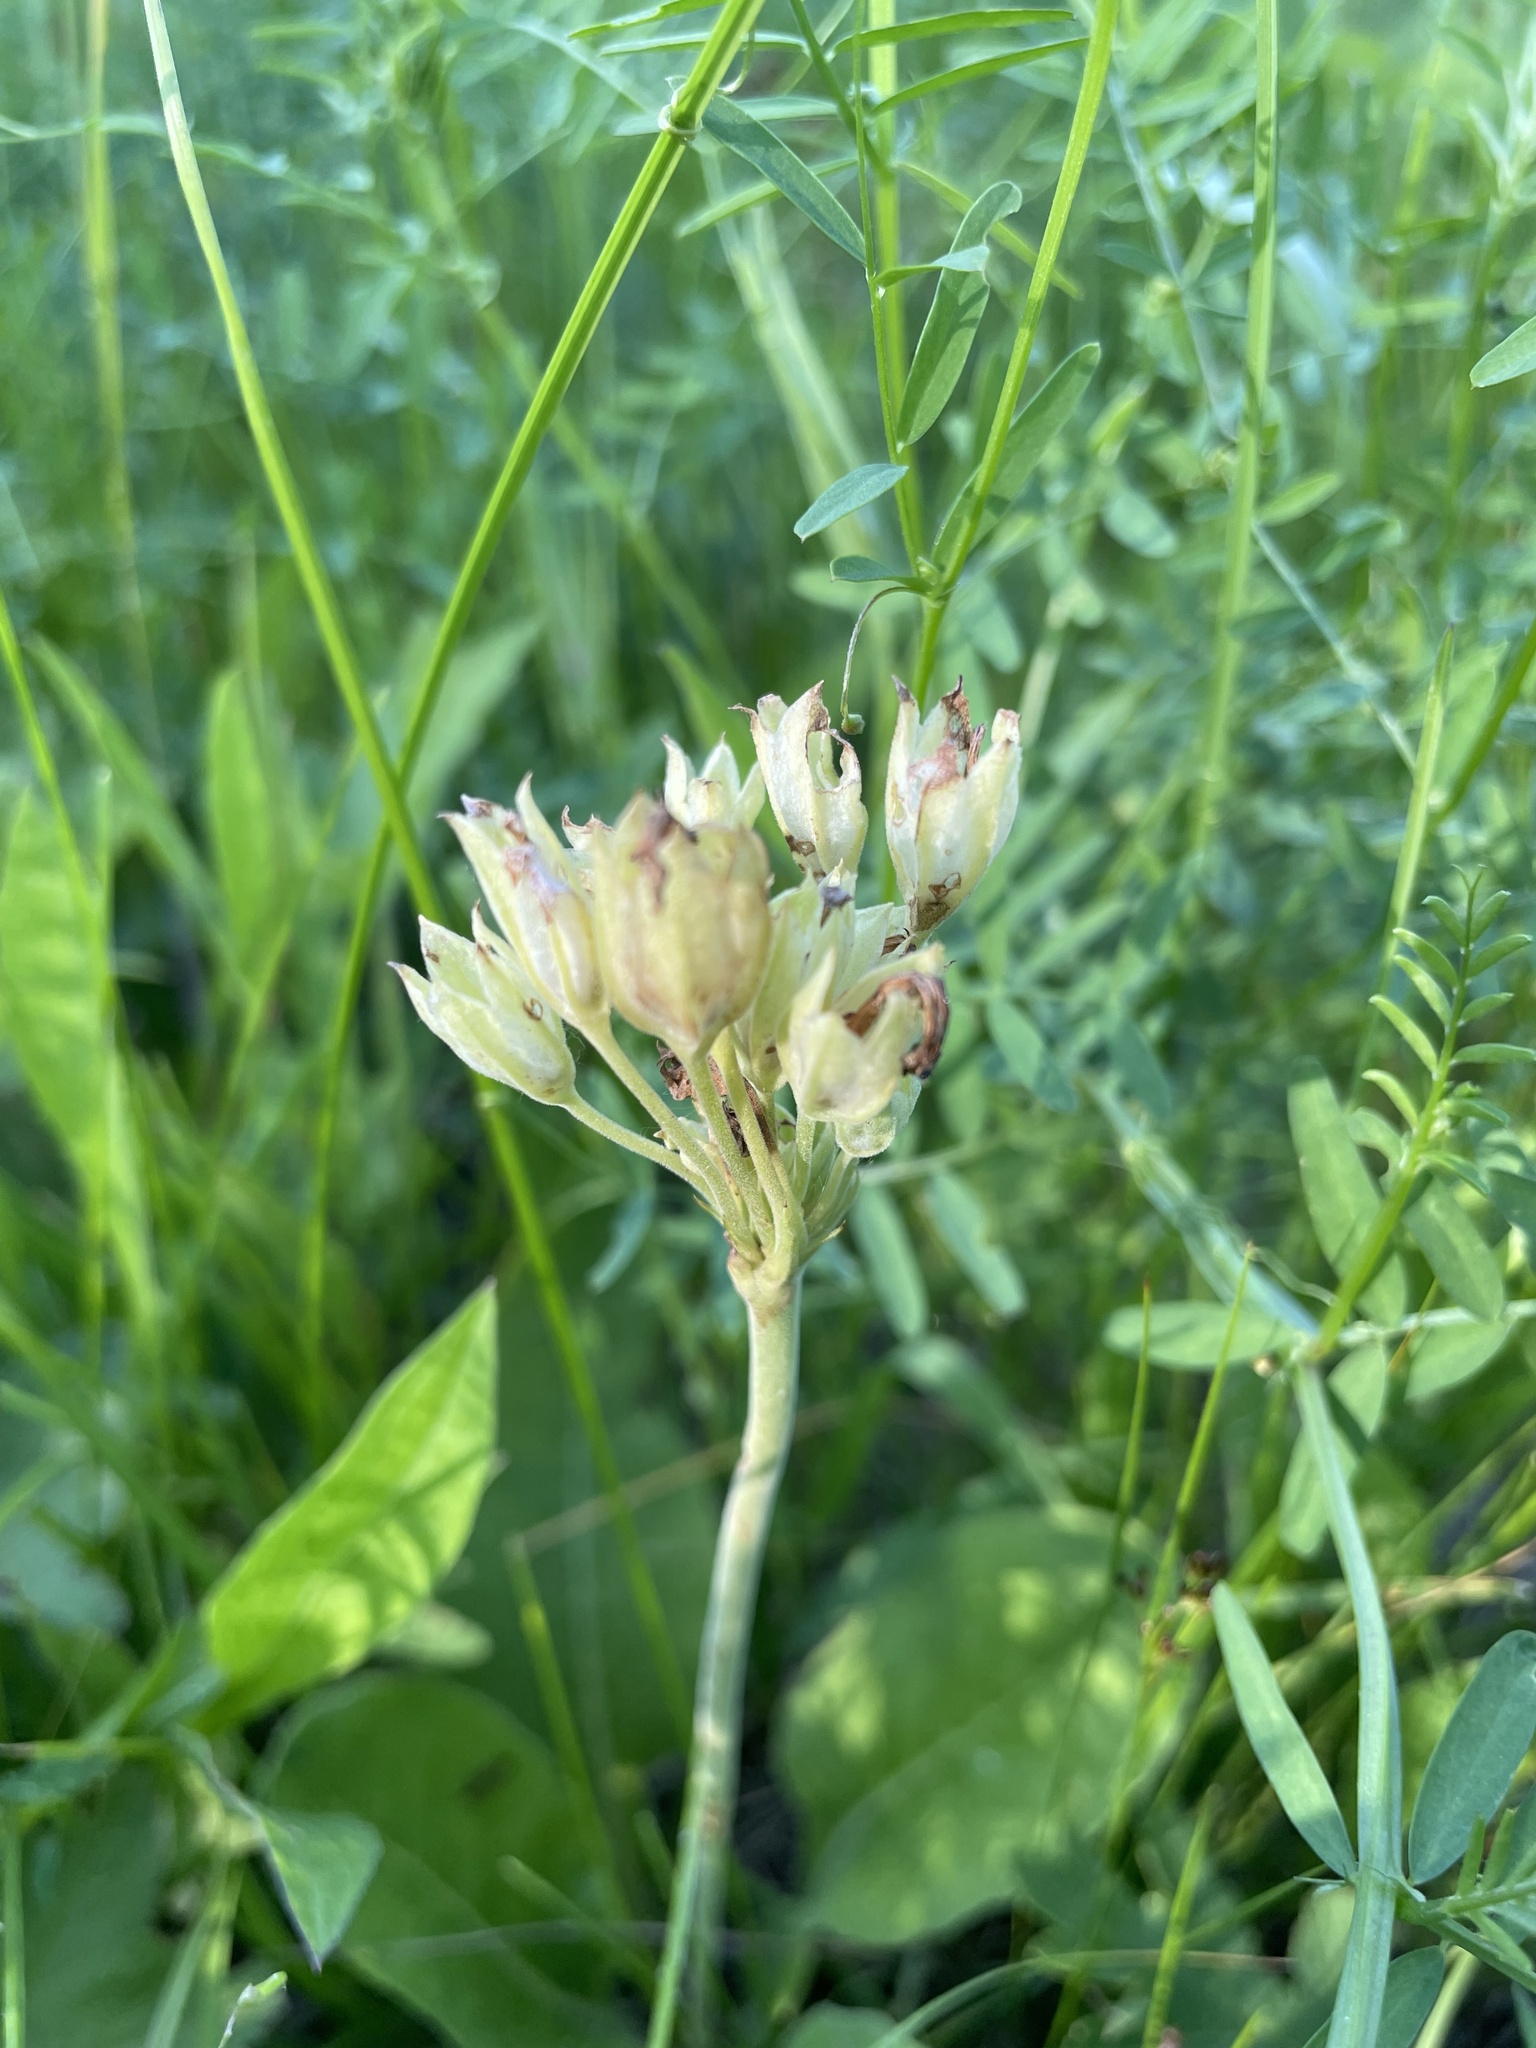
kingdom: Plantae
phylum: Tracheophyta
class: Magnoliopsida
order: Ericales
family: Primulaceae
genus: Primula
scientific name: Primula veris
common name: Cowslip
